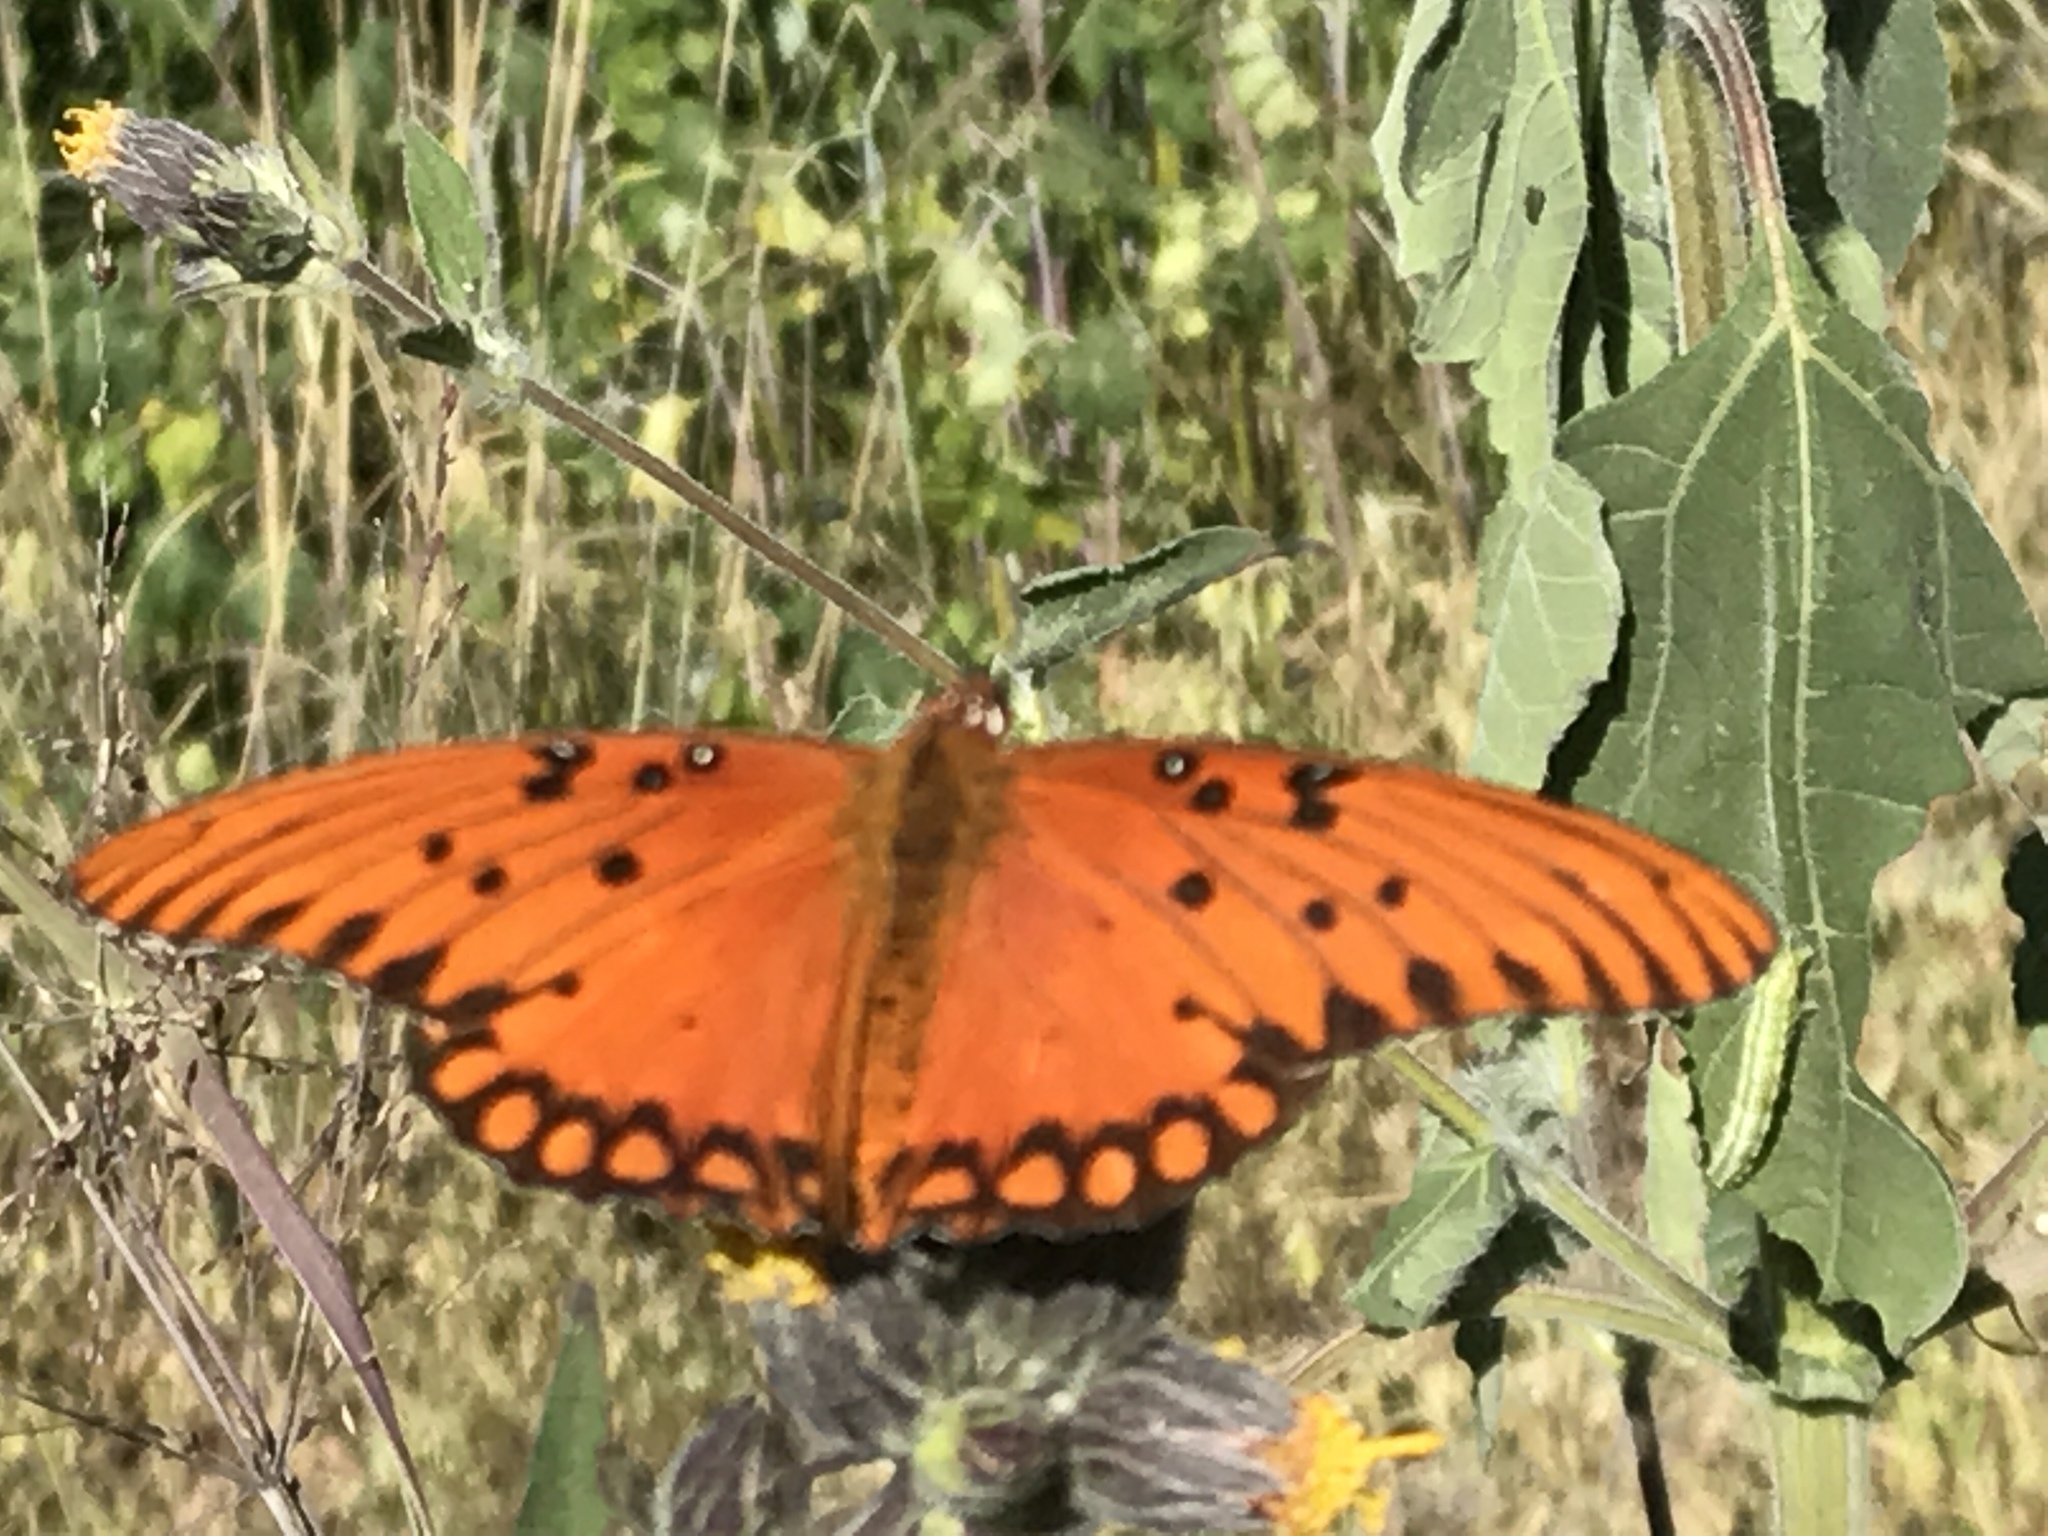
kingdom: Animalia
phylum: Arthropoda
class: Insecta
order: Lepidoptera
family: Nymphalidae
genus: Dione
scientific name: Dione vanillae
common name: Gulf fritillary
